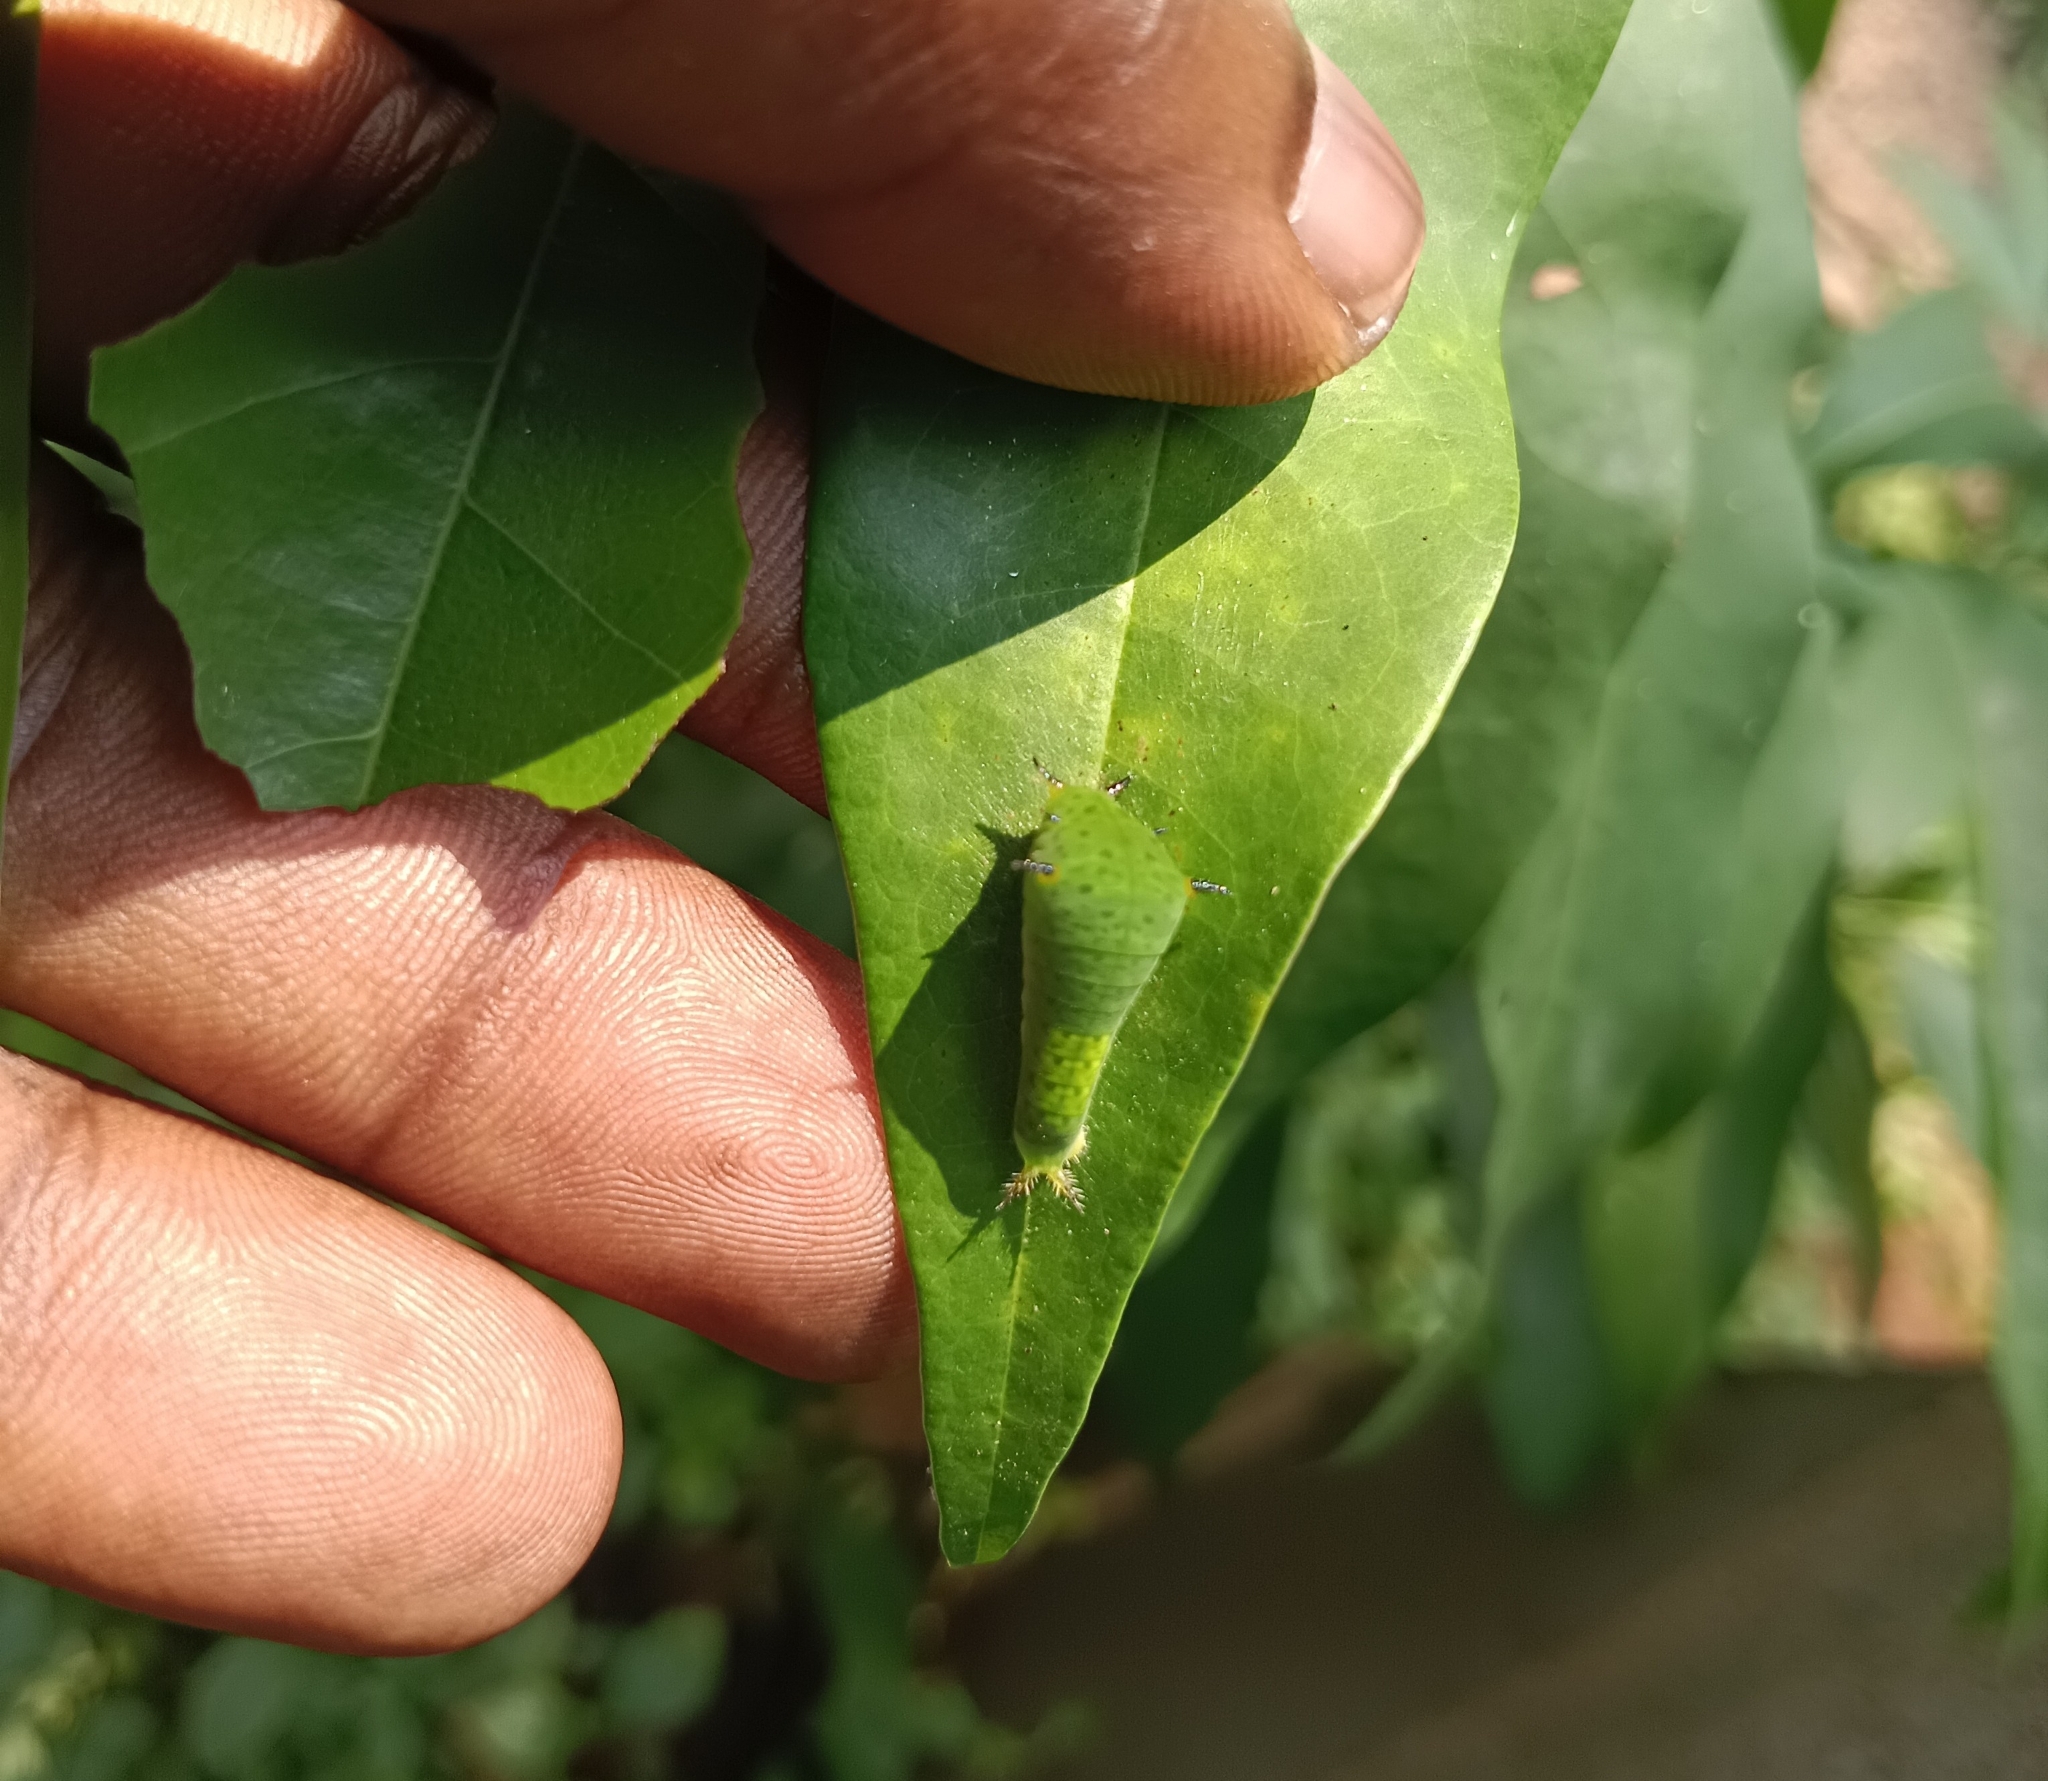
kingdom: Animalia
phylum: Arthropoda
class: Insecta
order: Lepidoptera
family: Papilionidae
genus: Graphium
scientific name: Graphium agamemnon
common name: Tailed jay
